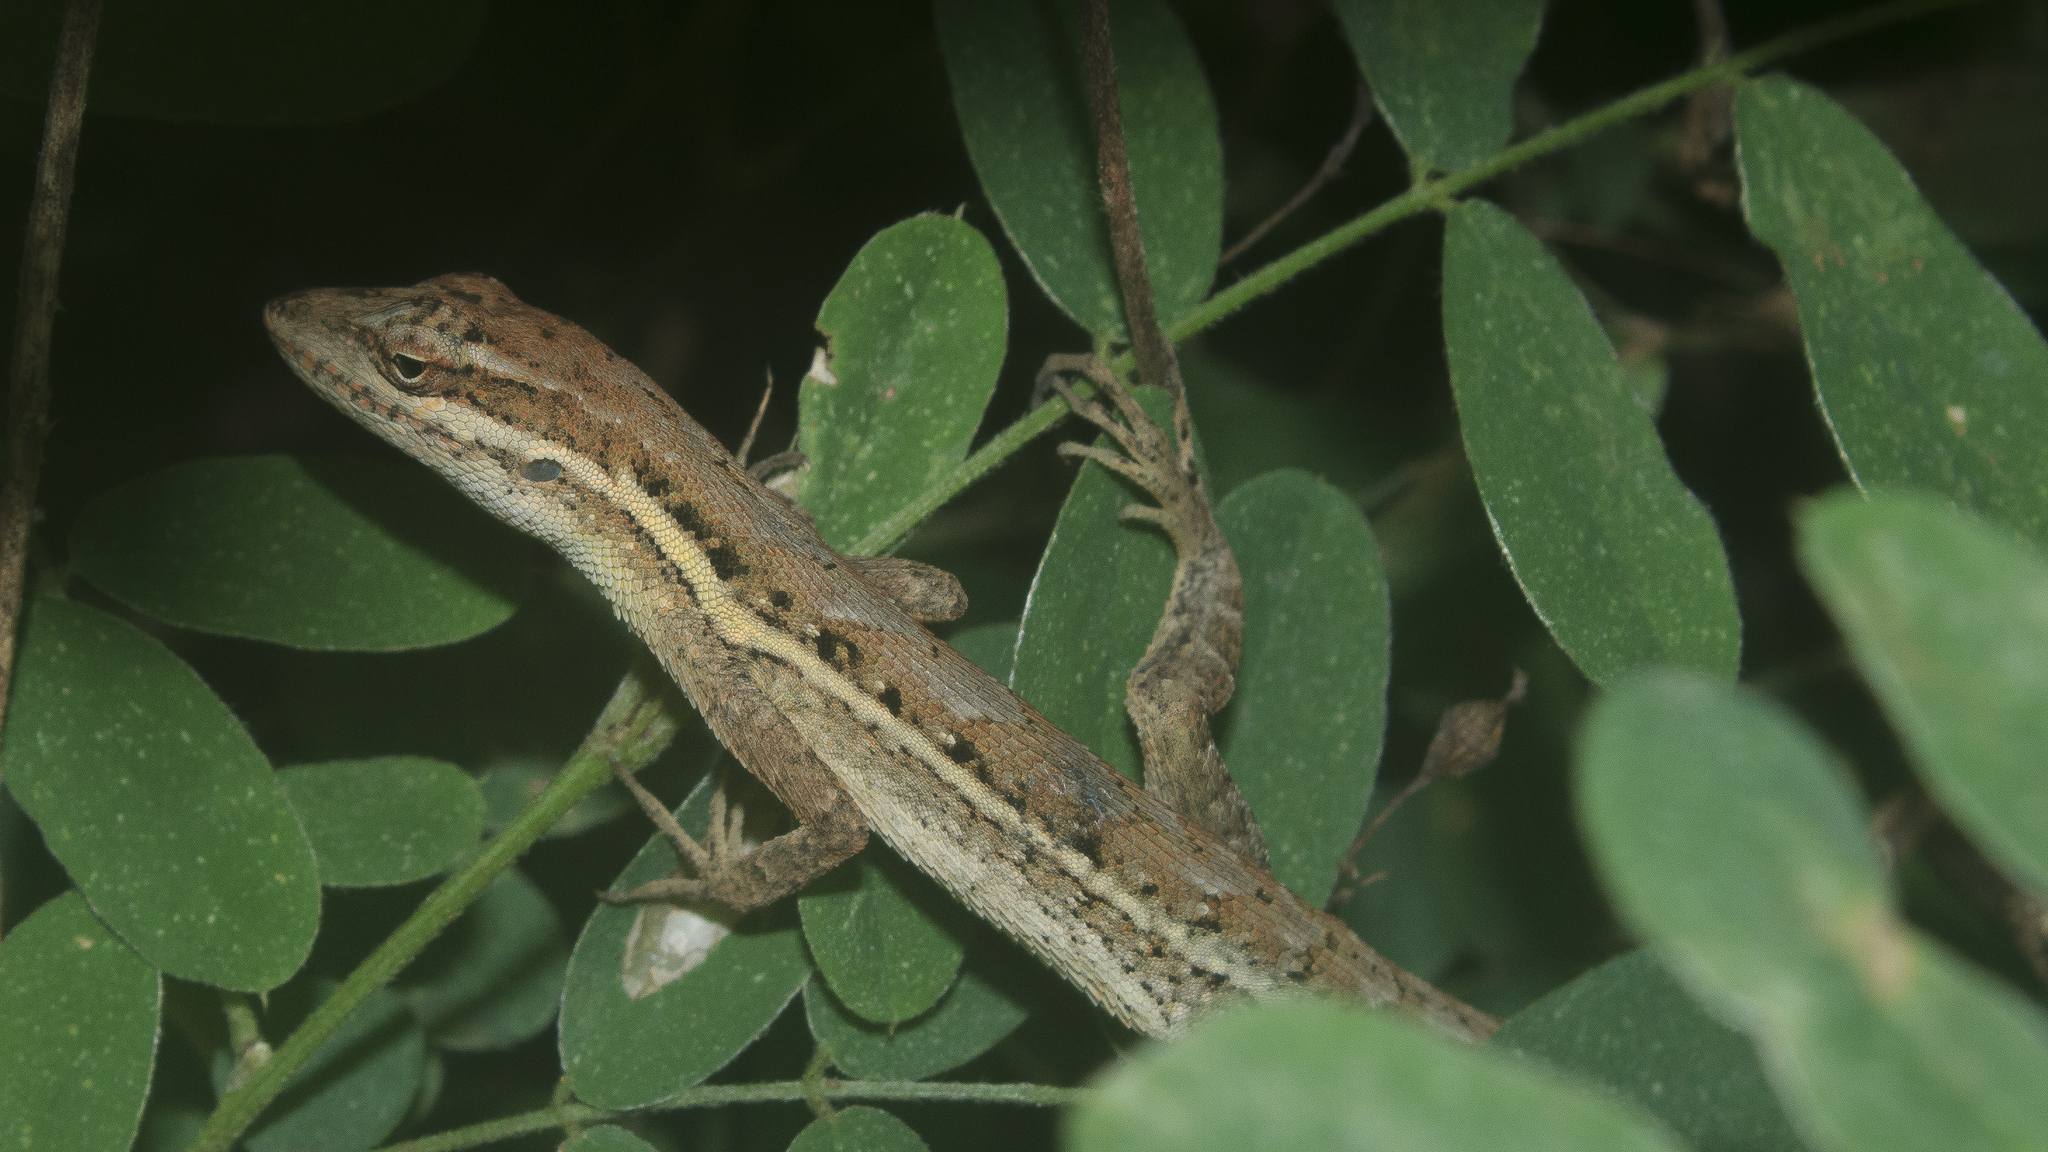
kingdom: Animalia
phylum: Chordata
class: Squamata
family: Dactyloidae
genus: Anolis
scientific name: Anolis auratus
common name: Grass anole
